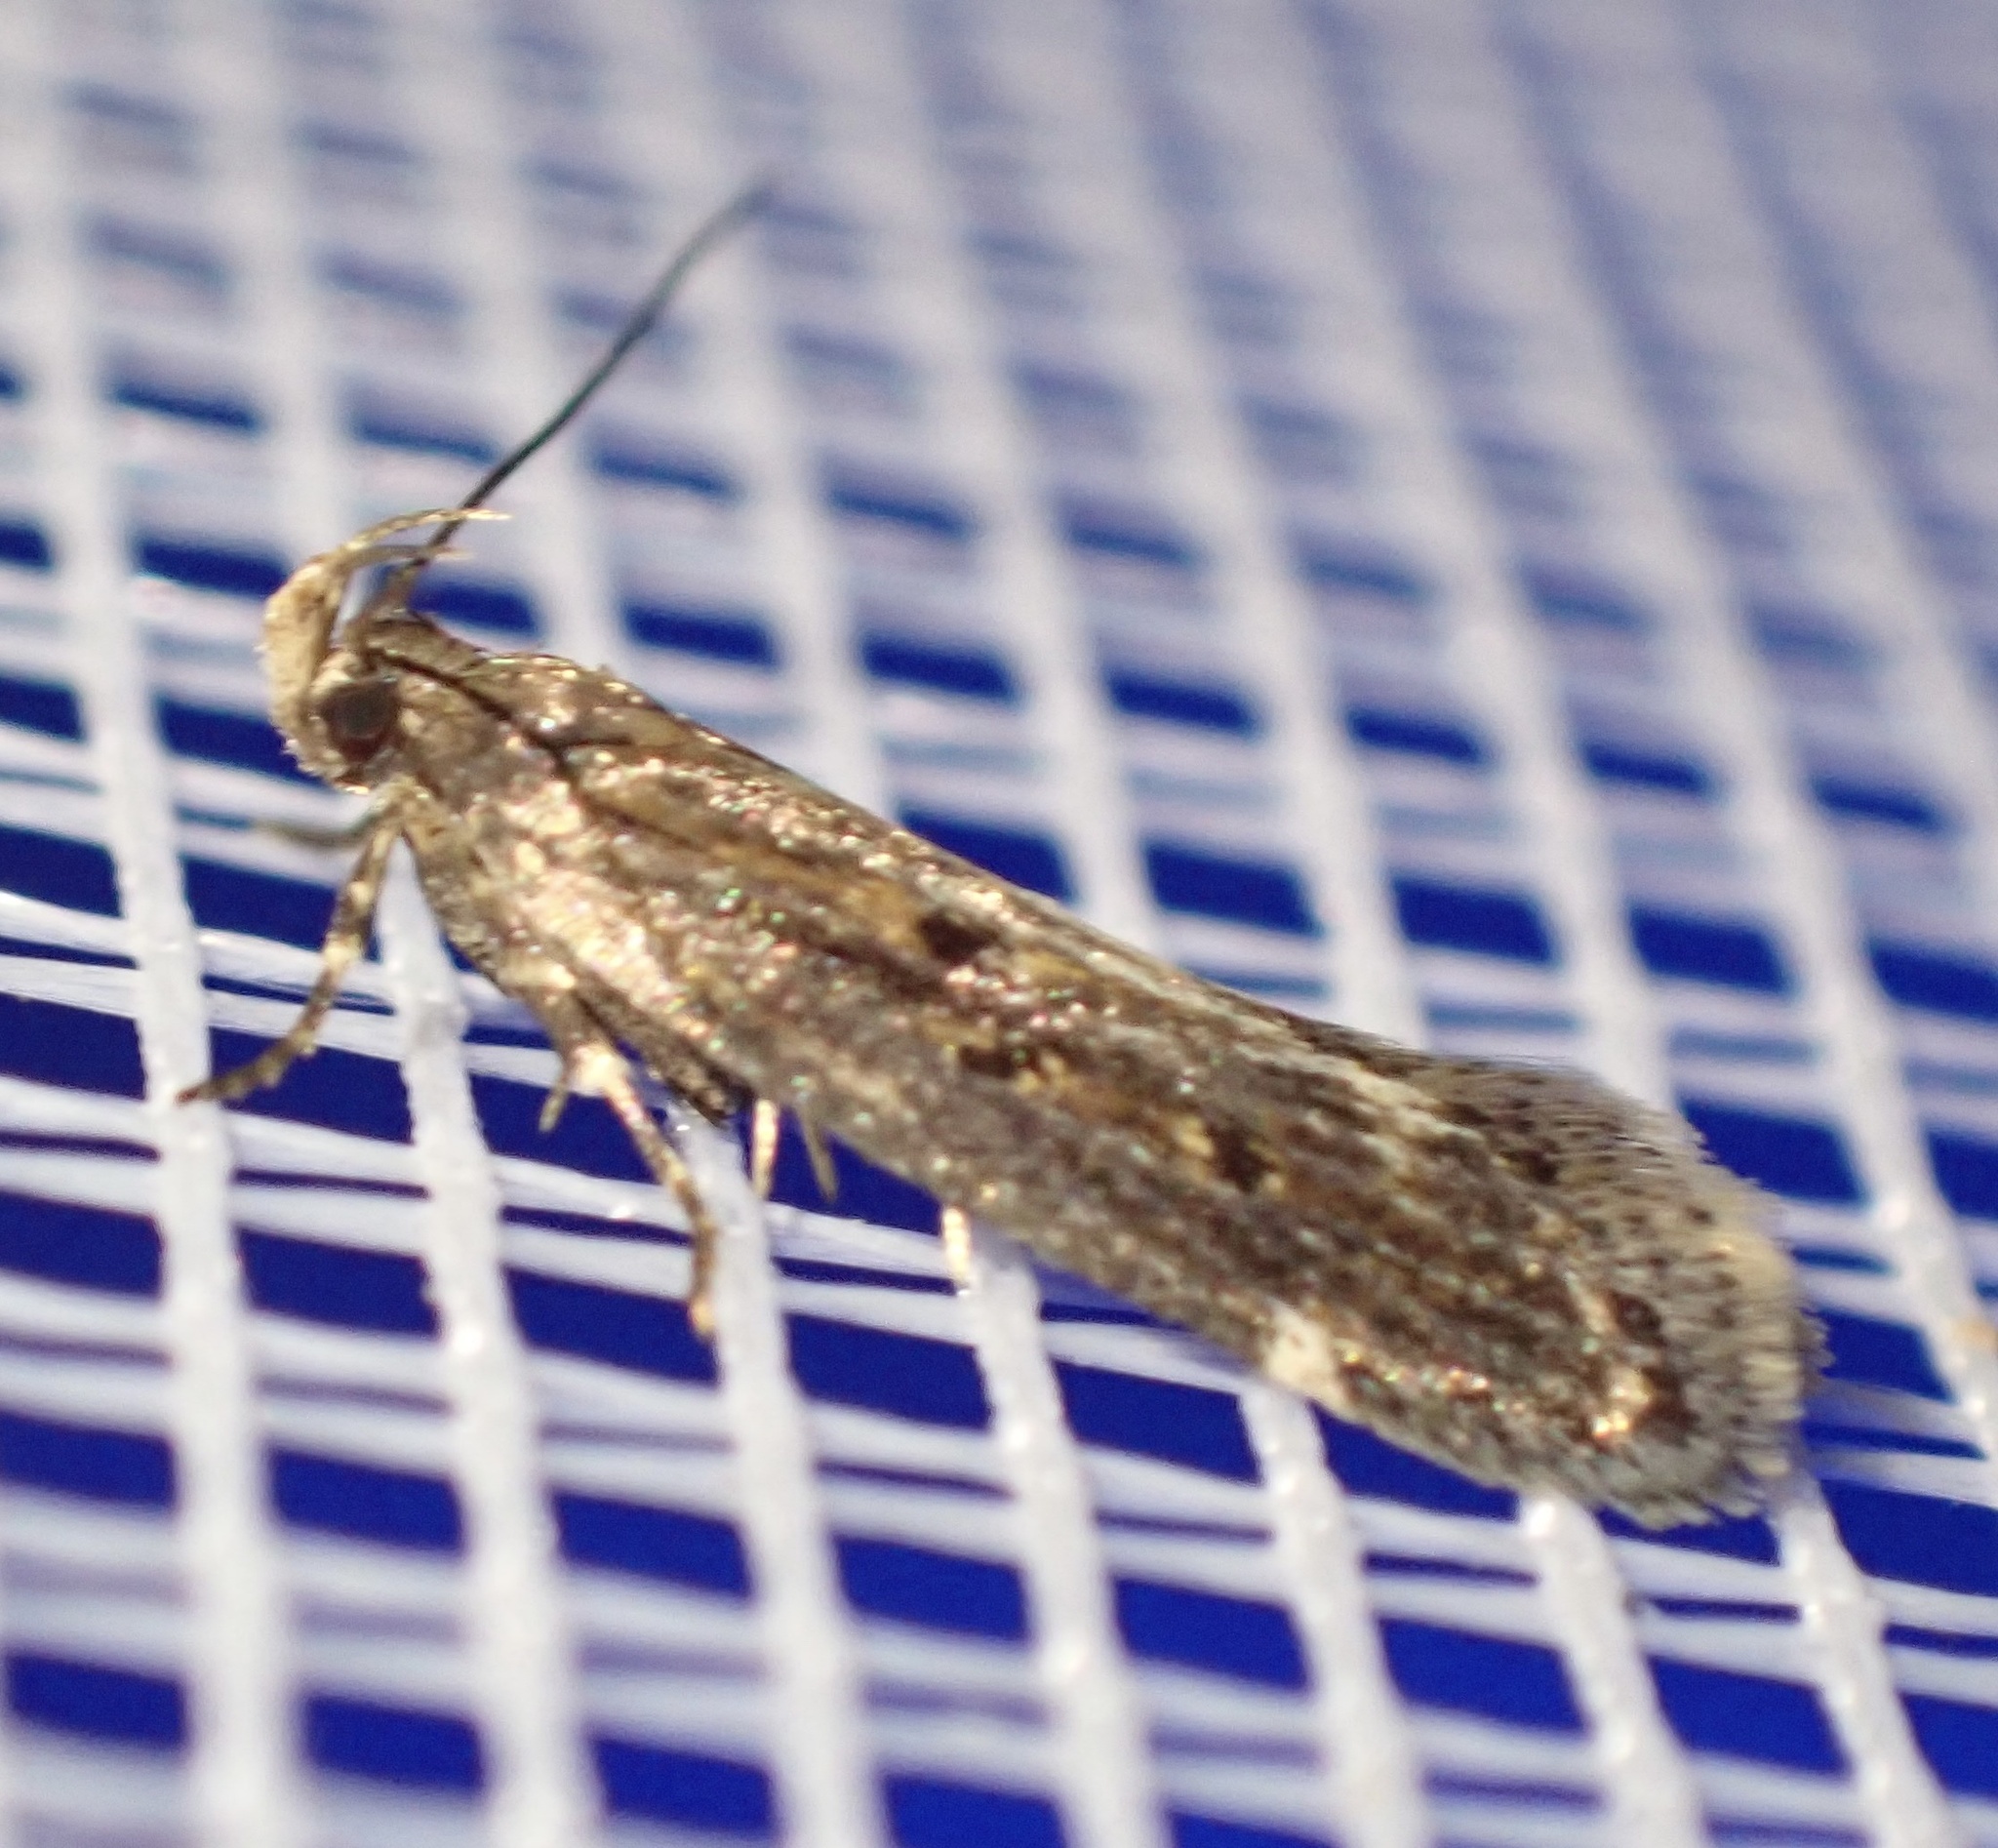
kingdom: Animalia
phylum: Arthropoda
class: Insecta
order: Lepidoptera
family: Gelechiidae
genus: Aroga
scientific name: Aroga velocella
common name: Dusky groundling
